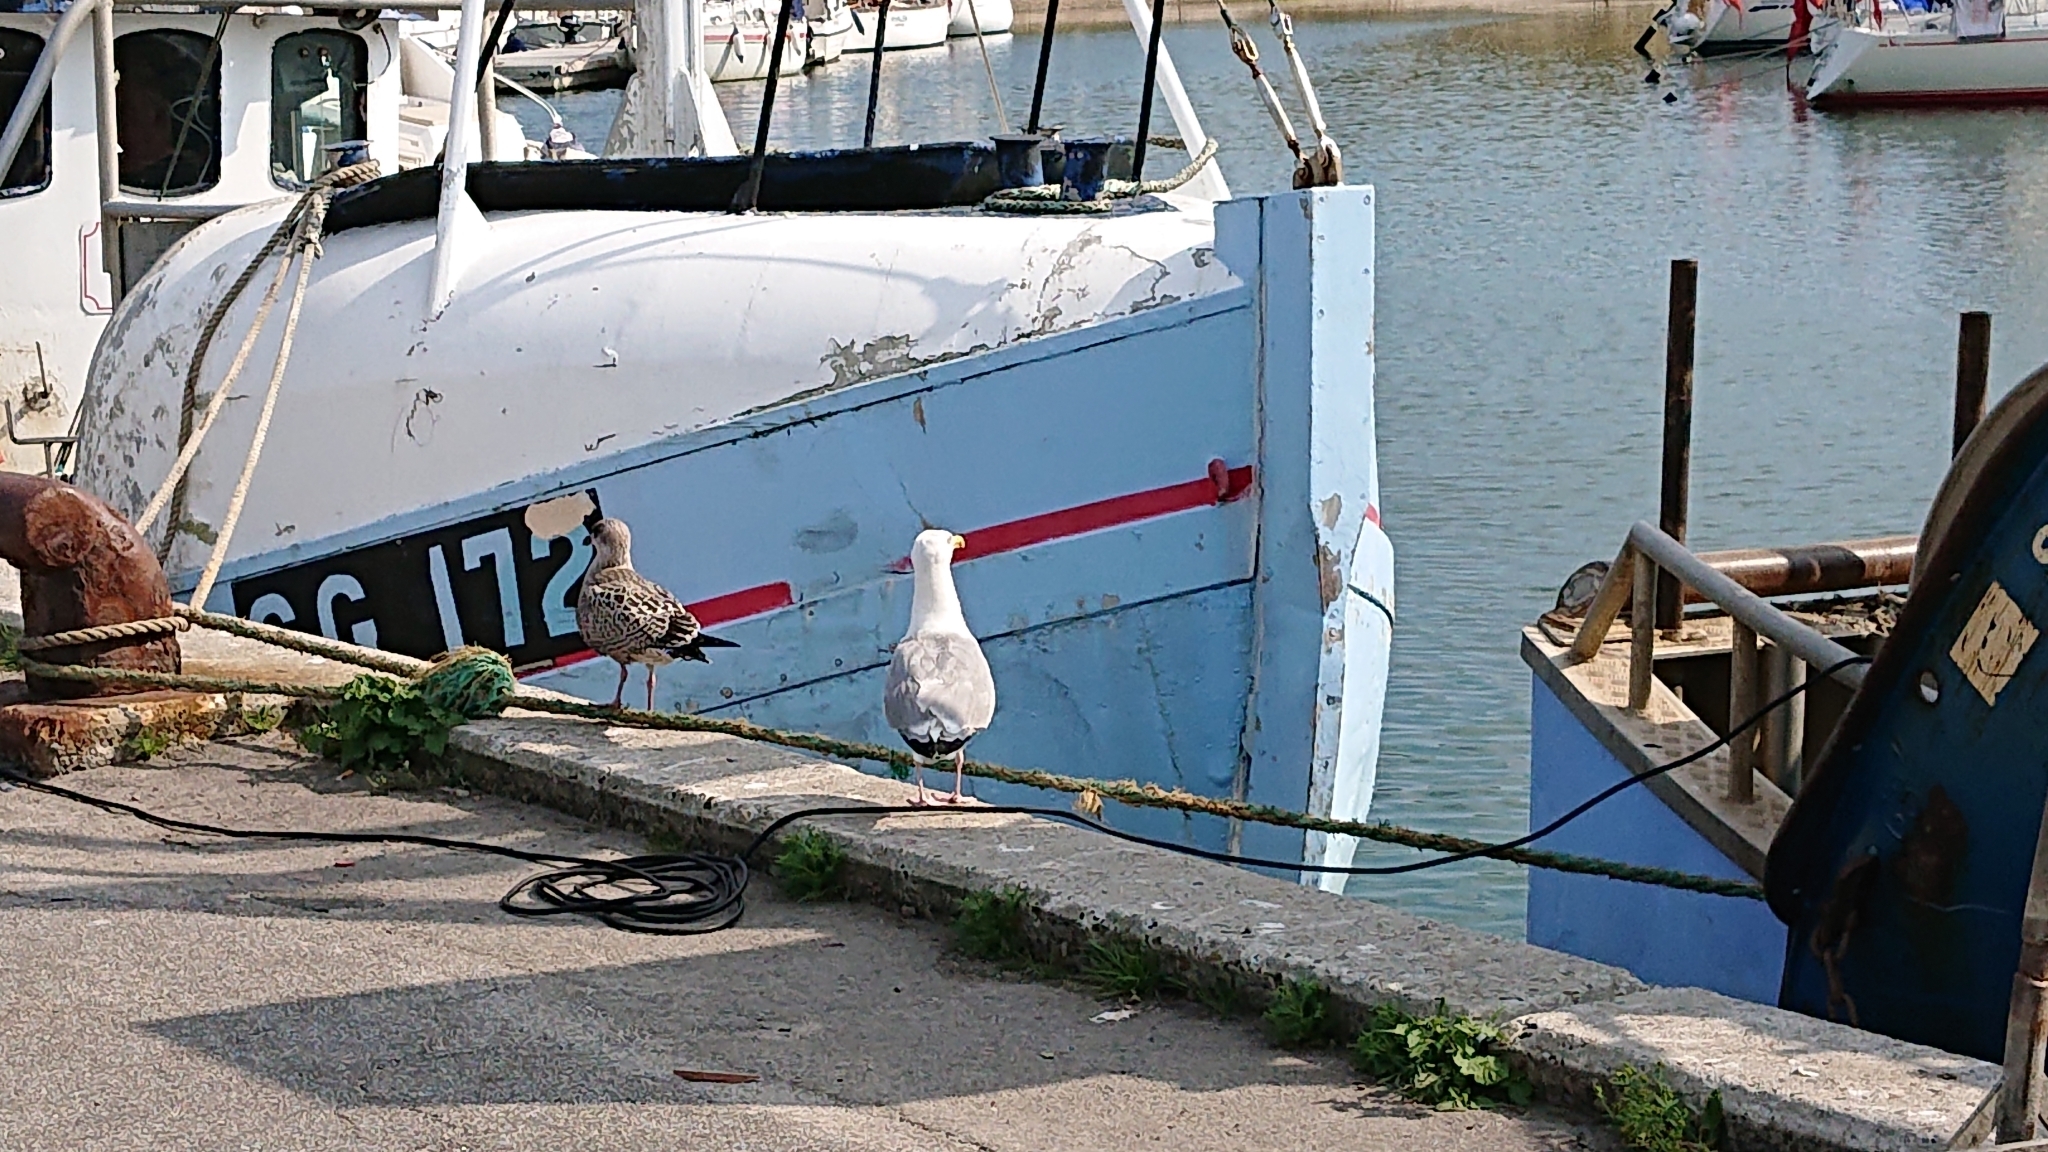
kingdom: Animalia
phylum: Chordata
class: Aves
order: Charadriiformes
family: Laridae
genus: Larus
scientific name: Larus argentatus
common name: Herring gull
